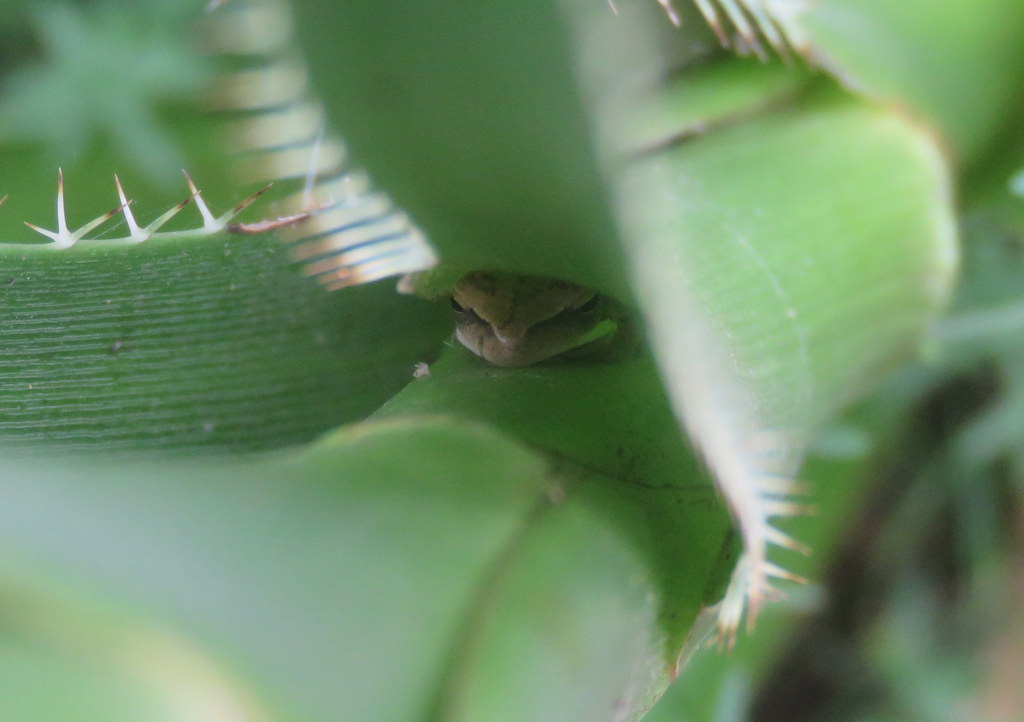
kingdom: Animalia
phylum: Chordata
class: Amphibia
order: Anura
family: Hylidae
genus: Boana
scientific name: Boana pulchella
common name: Montevideo treefrog
